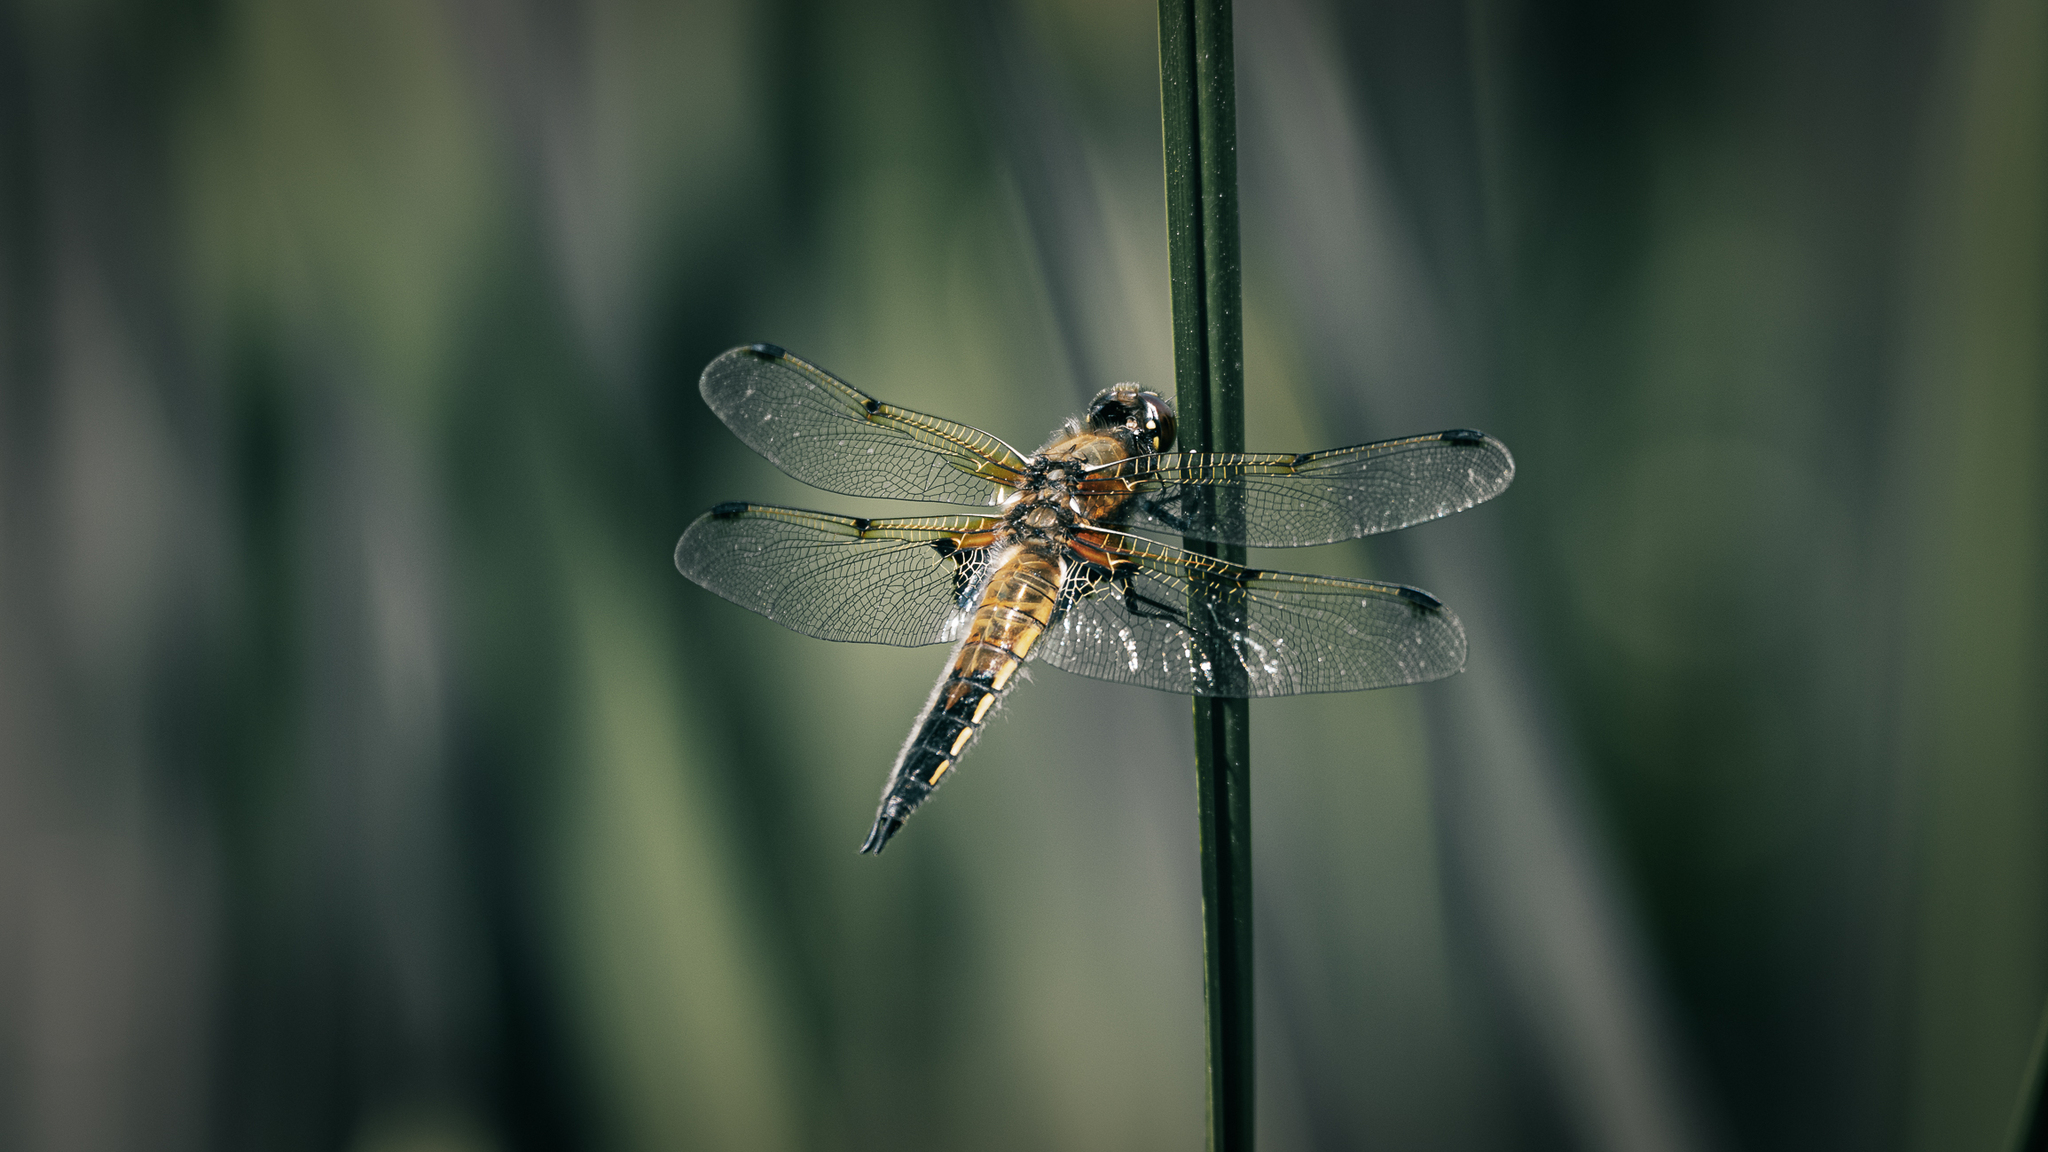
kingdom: Animalia
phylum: Arthropoda
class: Insecta
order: Odonata
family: Libellulidae
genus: Libellula
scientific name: Libellula quadrimaculata
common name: Four-spotted chaser
